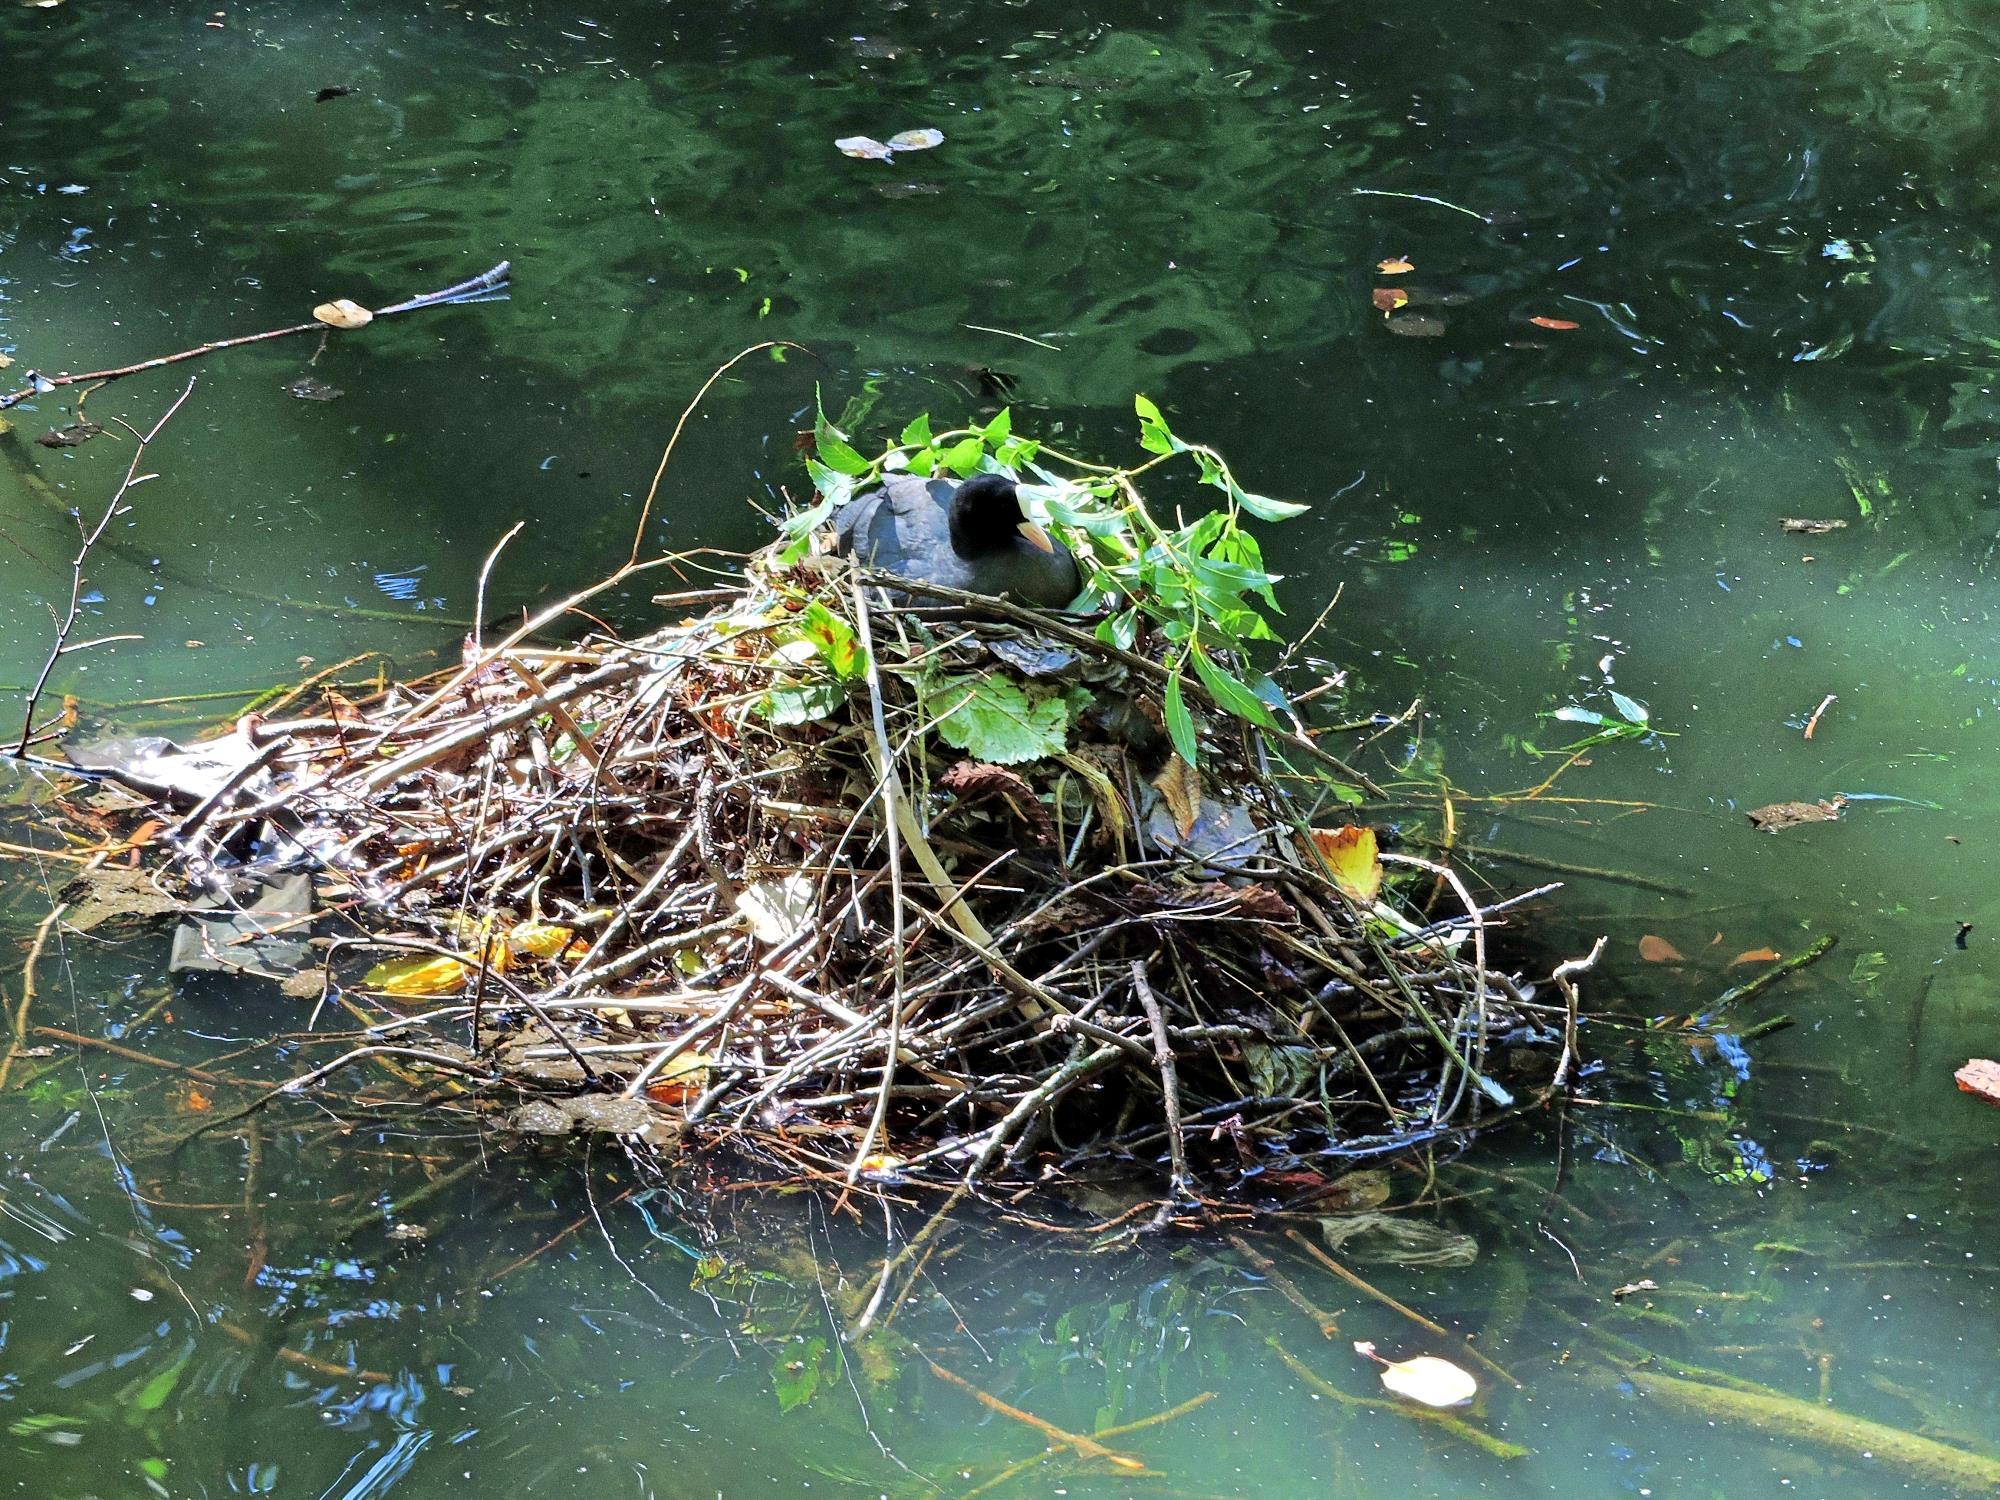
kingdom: Animalia
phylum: Chordata
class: Aves
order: Gruiformes
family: Rallidae
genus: Fulica
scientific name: Fulica atra
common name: Eurasian coot
